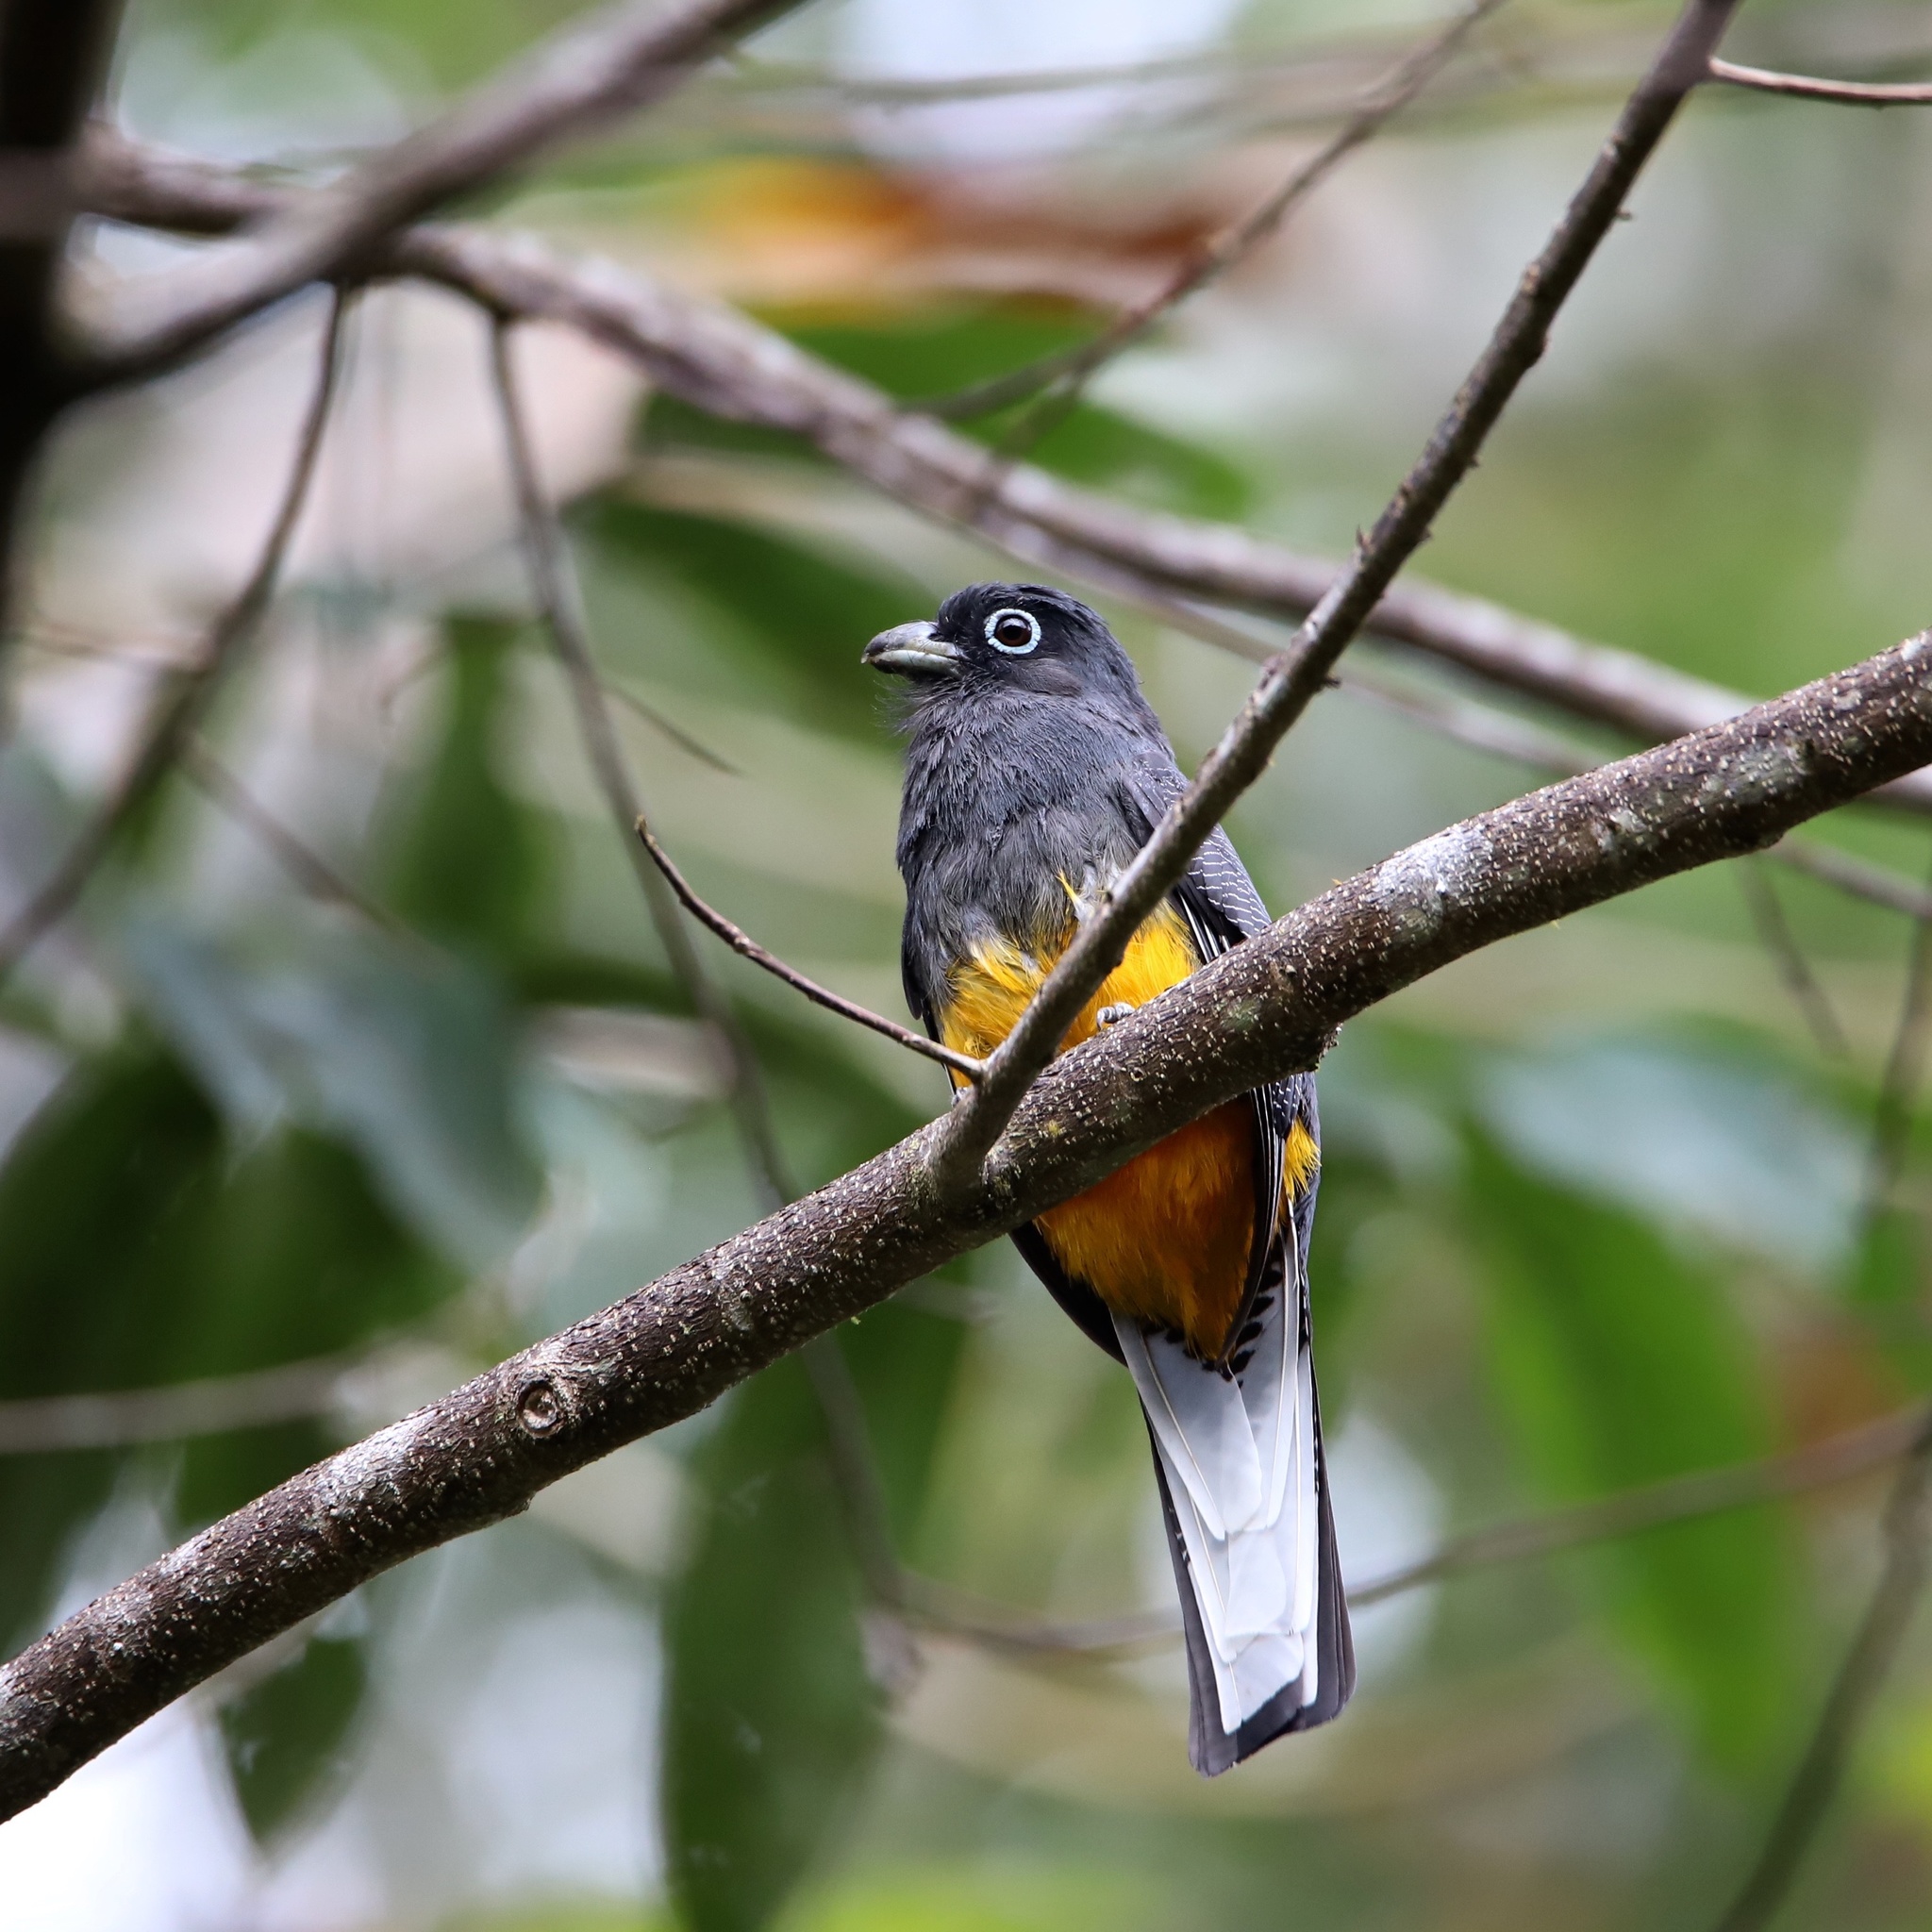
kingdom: Animalia
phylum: Chordata
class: Aves
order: Trogoniformes
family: Trogonidae
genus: Trogon
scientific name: Trogon chionurus
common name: White-tailed trogon
